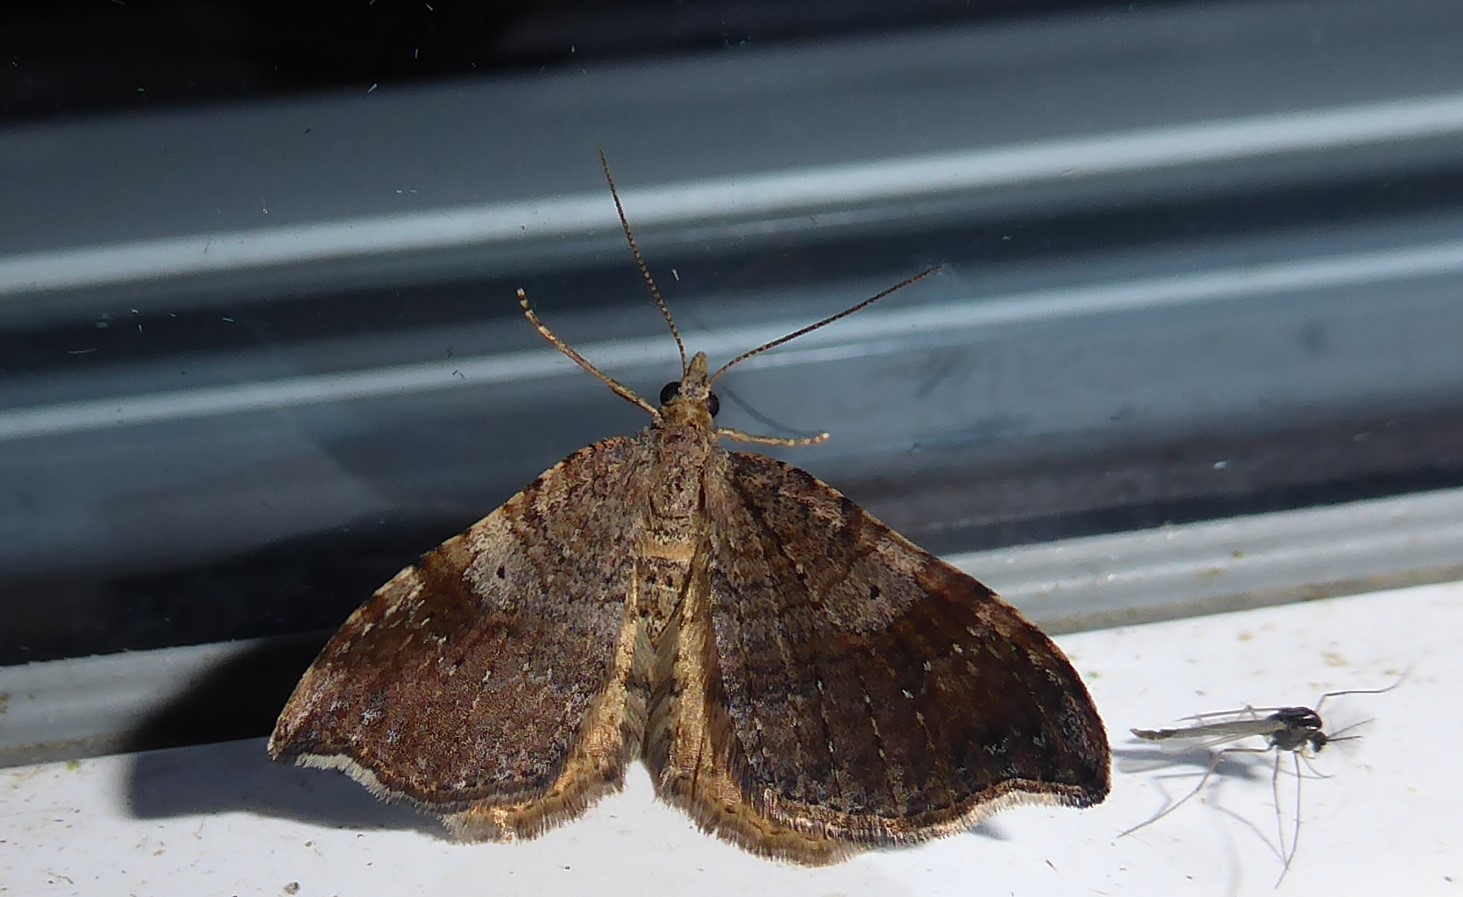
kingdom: Animalia
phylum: Arthropoda
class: Insecta
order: Lepidoptera
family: Geometridae
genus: Homodotis
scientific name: Homodotis megaspilata
